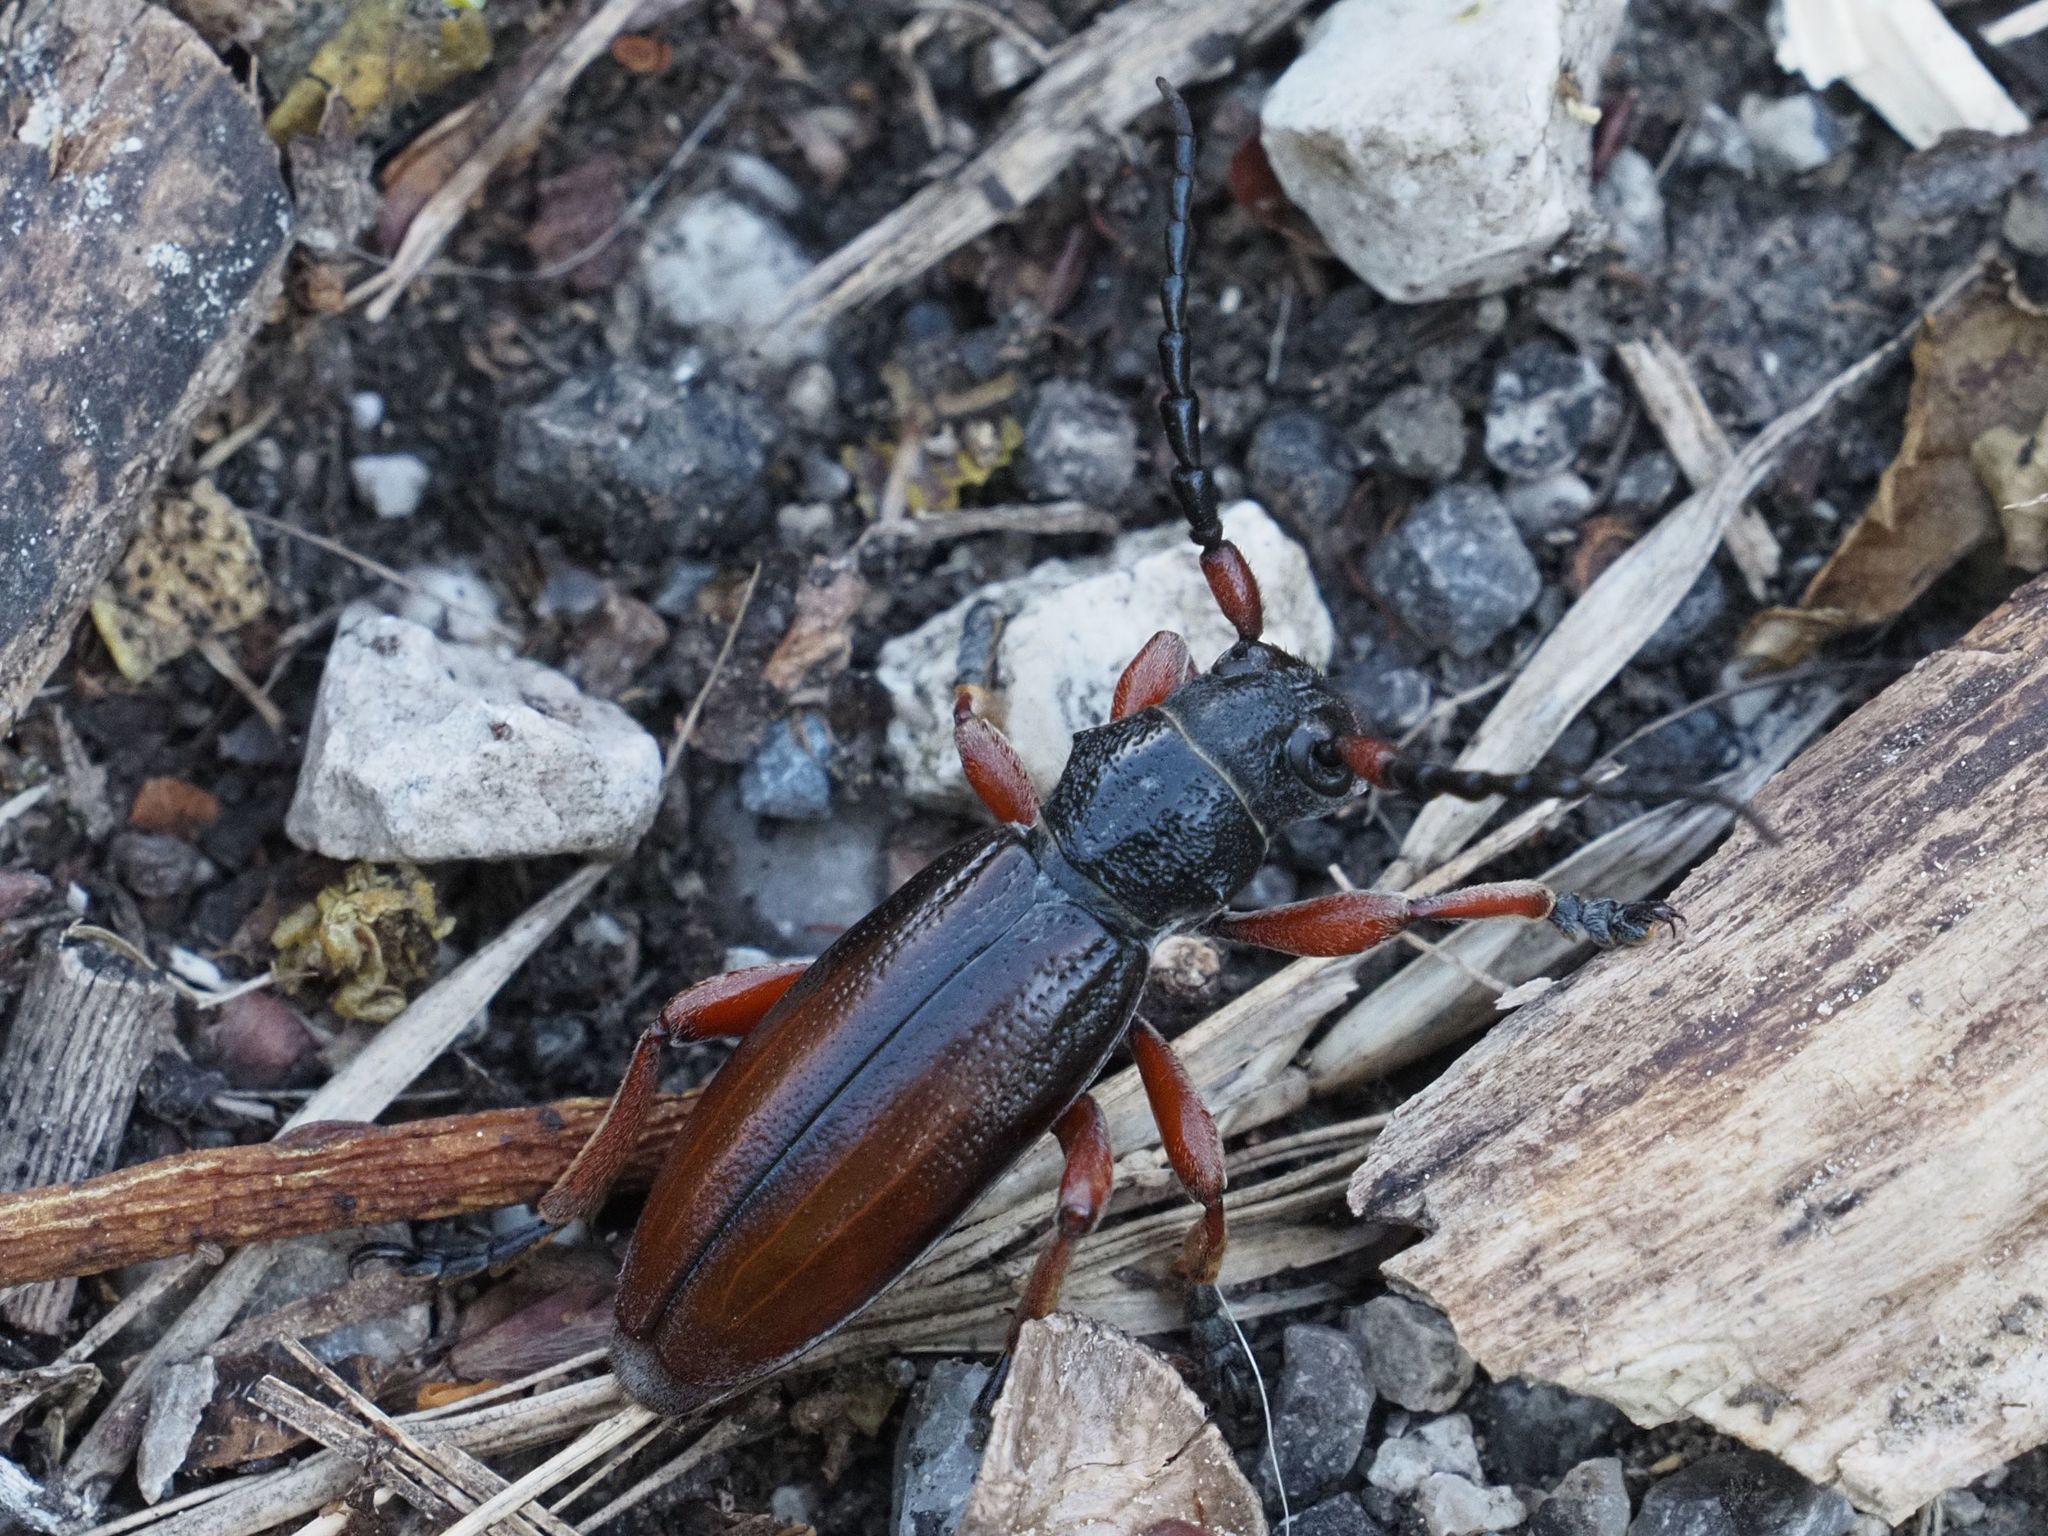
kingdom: Animalia
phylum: Arthropoda
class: Insecta
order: Coleoptera
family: Cerambycidae
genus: Dorcadion
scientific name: Dorcadion fulvum
